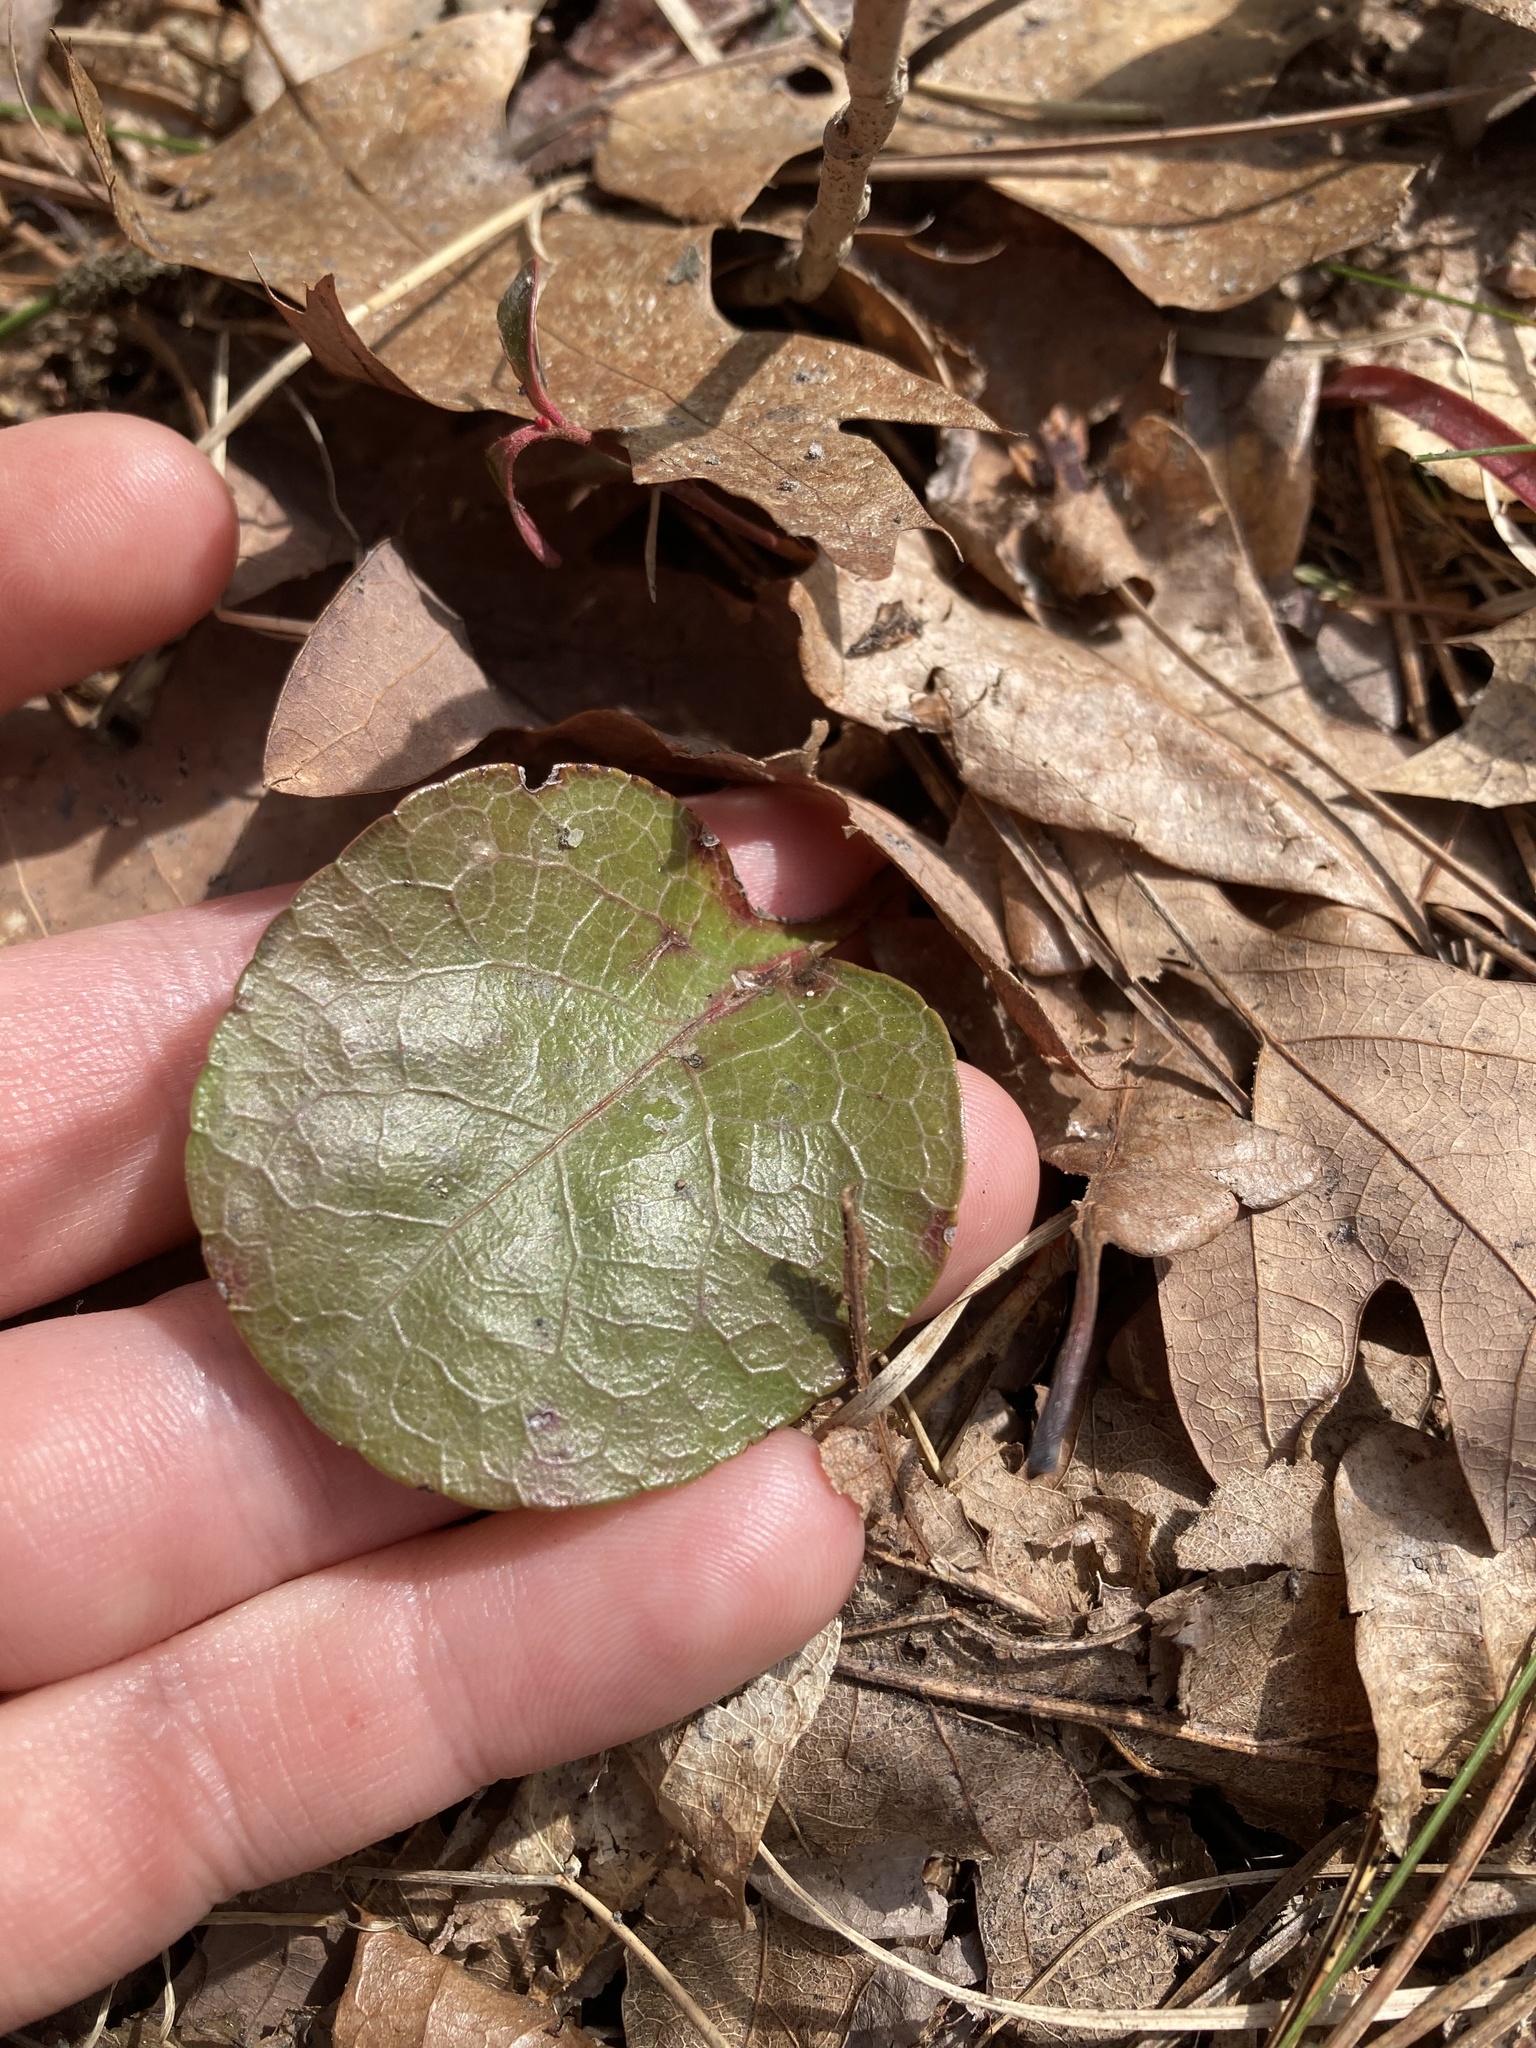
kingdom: Plantae
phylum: Tracheophyta
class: Magnoliopsida
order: Ericales
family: Ericaceae
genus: Pyrola
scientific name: Pyrola americana
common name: American wintergreen
